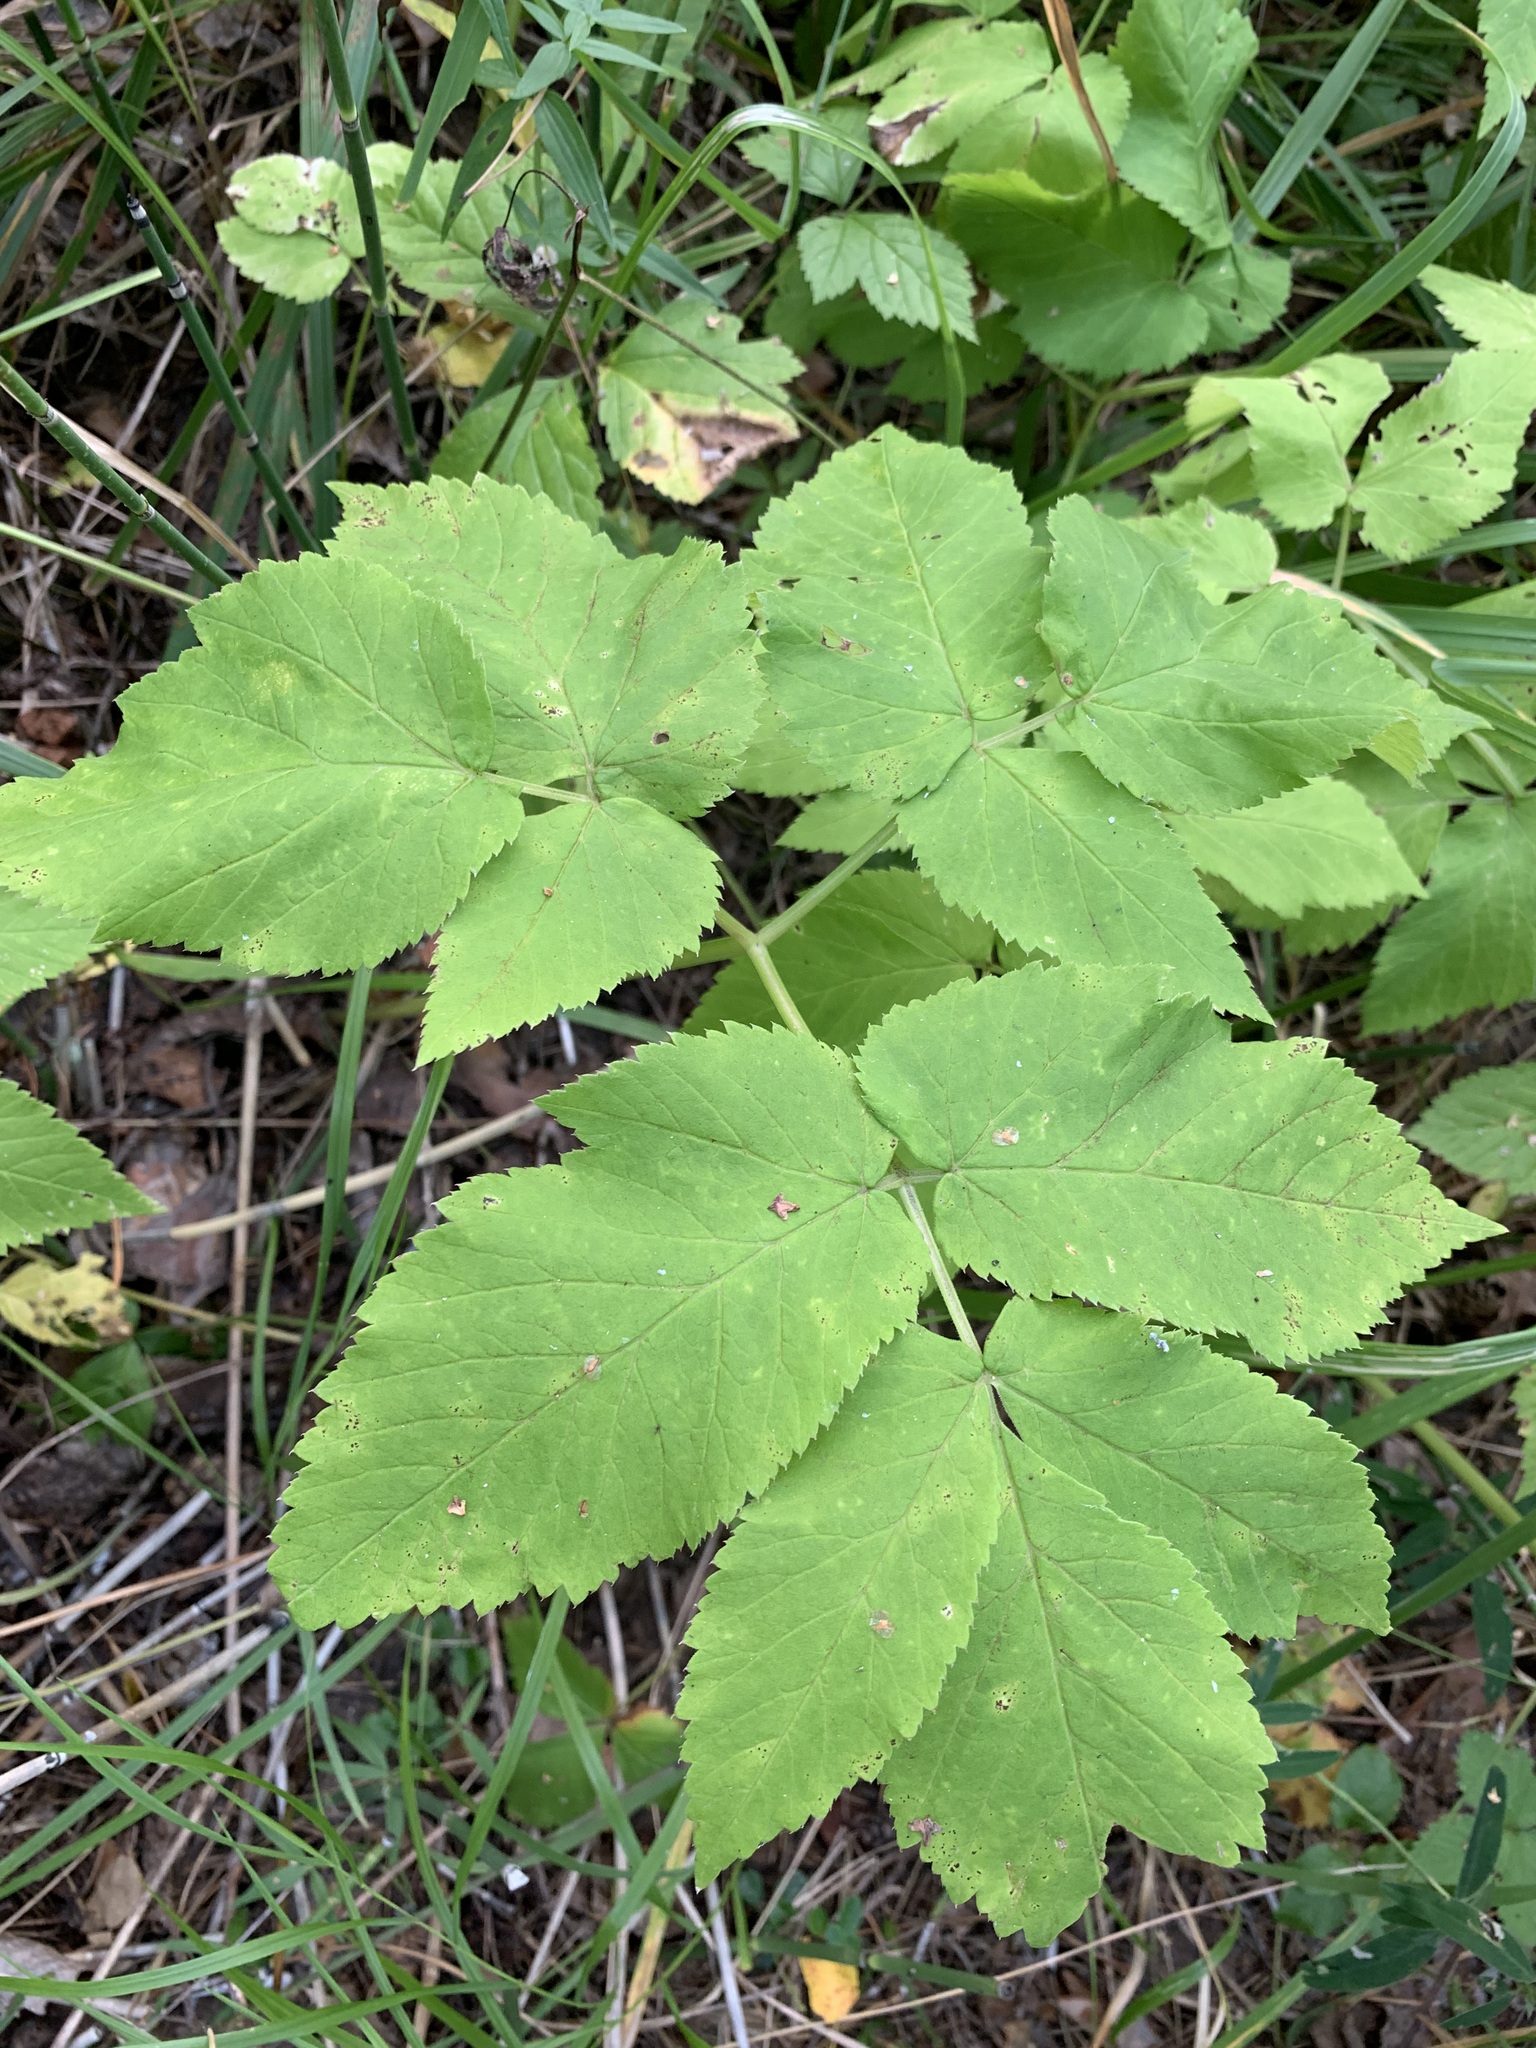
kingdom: Plantae
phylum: Tracheophyta
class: Magnoliopsida
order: Apiales
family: Apiaceae
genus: Aegopodium
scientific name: Aegopodium podagraria
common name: Ground-elder
